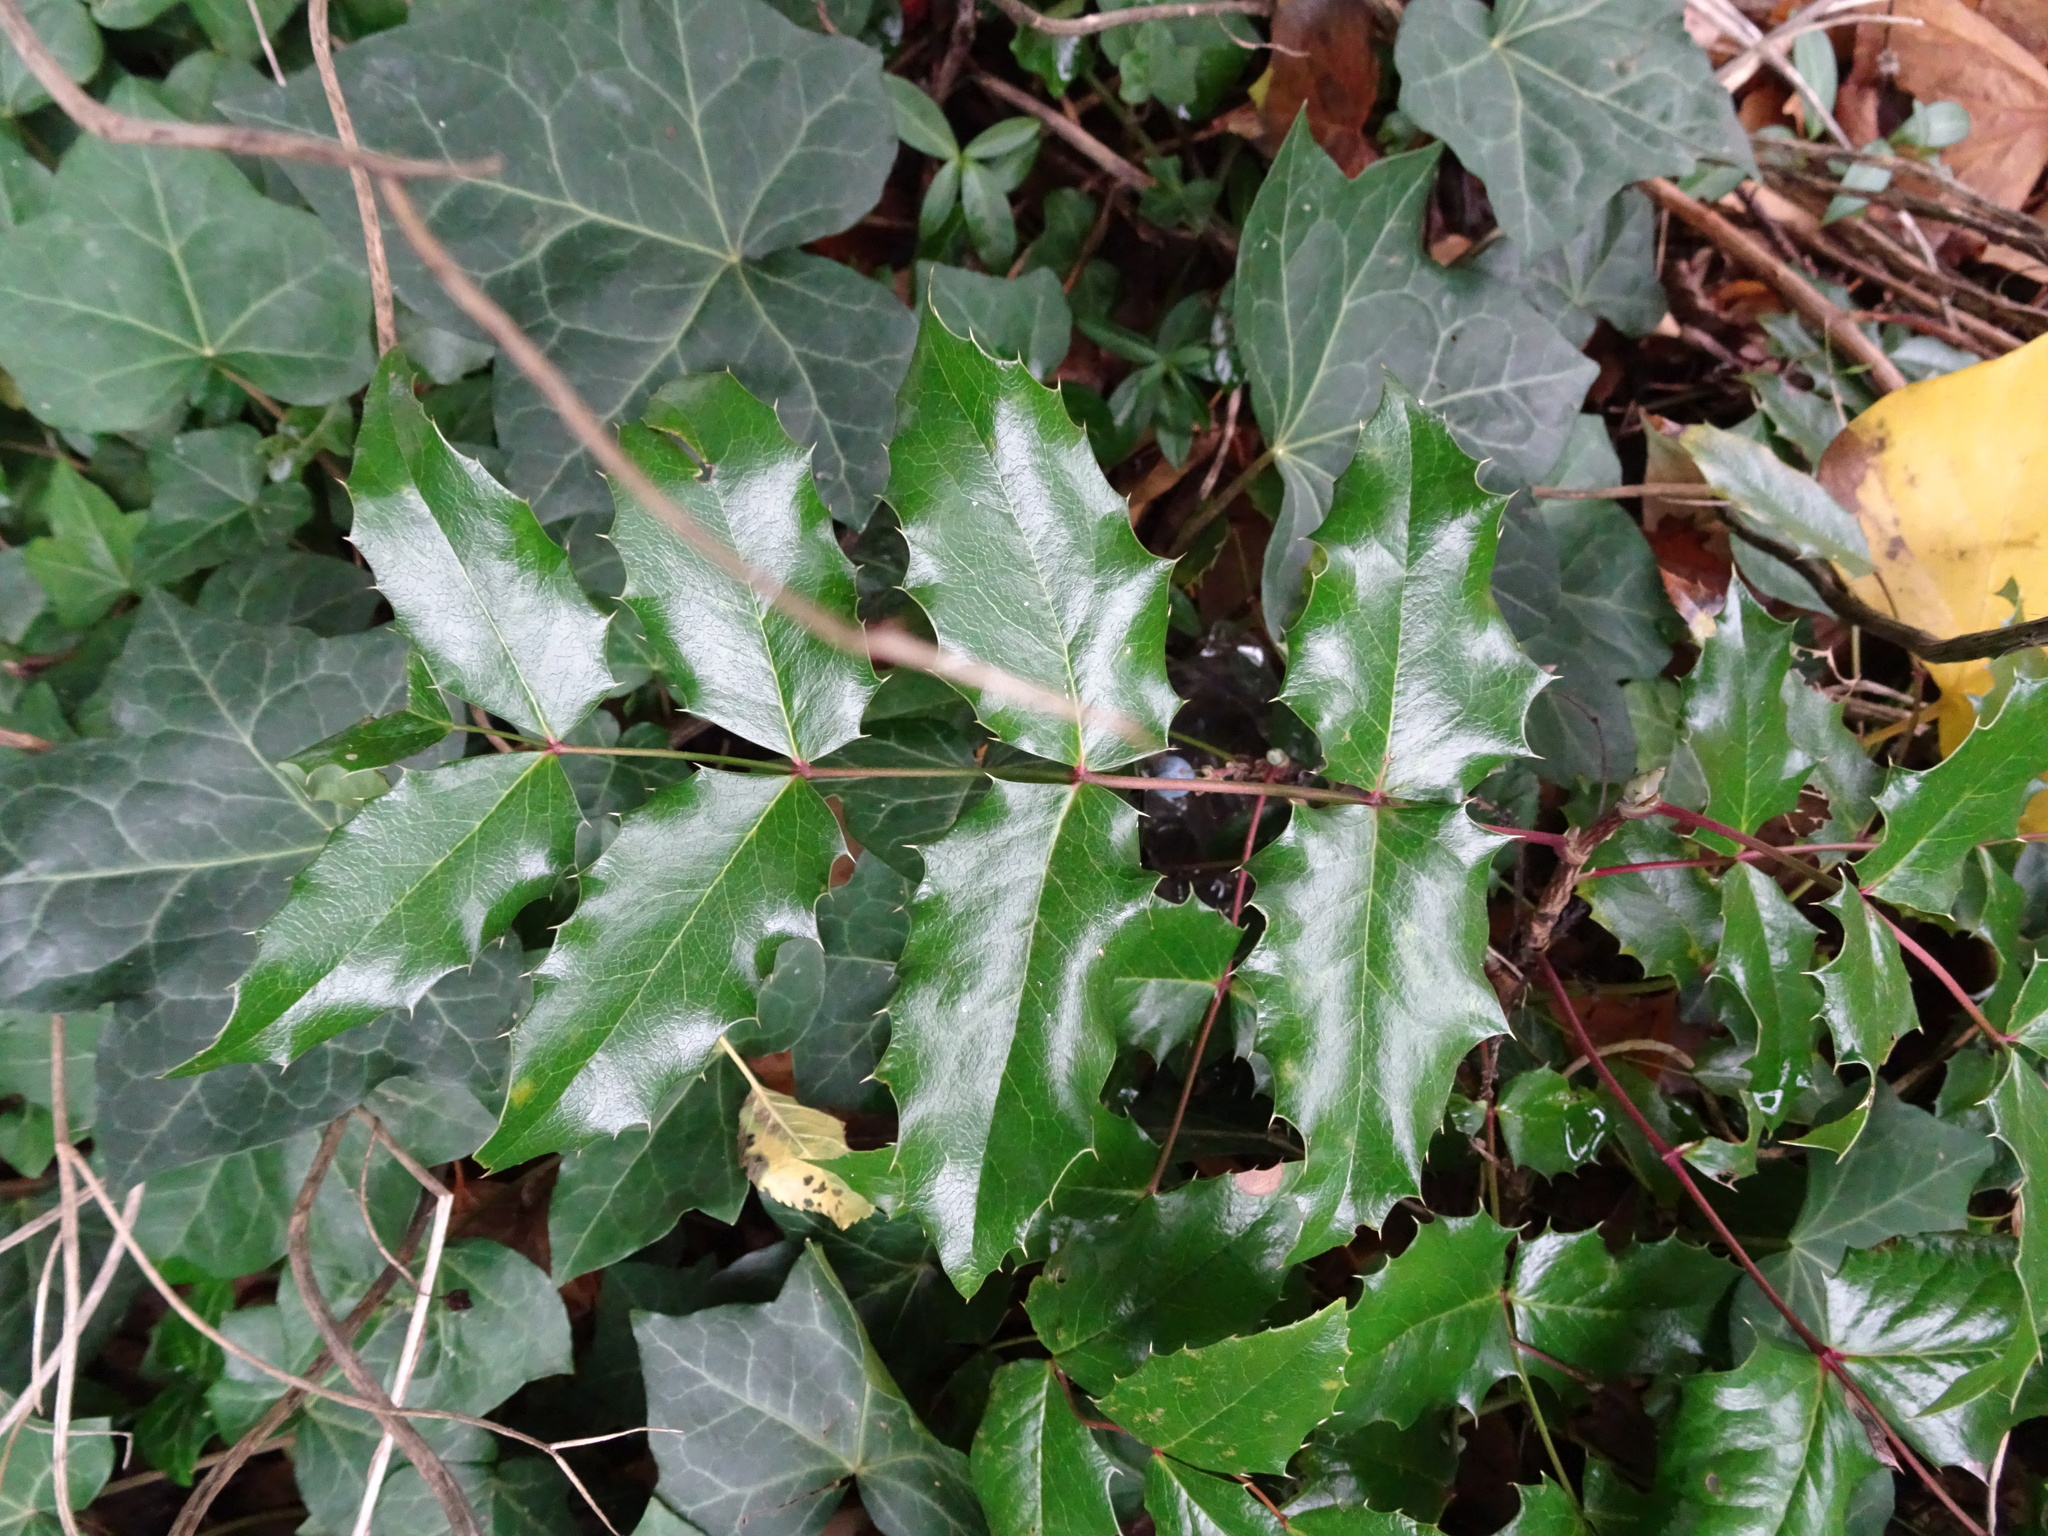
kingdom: Plantae
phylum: Tracheophyta
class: Magnoliopsida
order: Ranunculales
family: Berberidaceae
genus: Mahonia
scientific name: Mahonia aquifolium
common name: Oregon-grape
